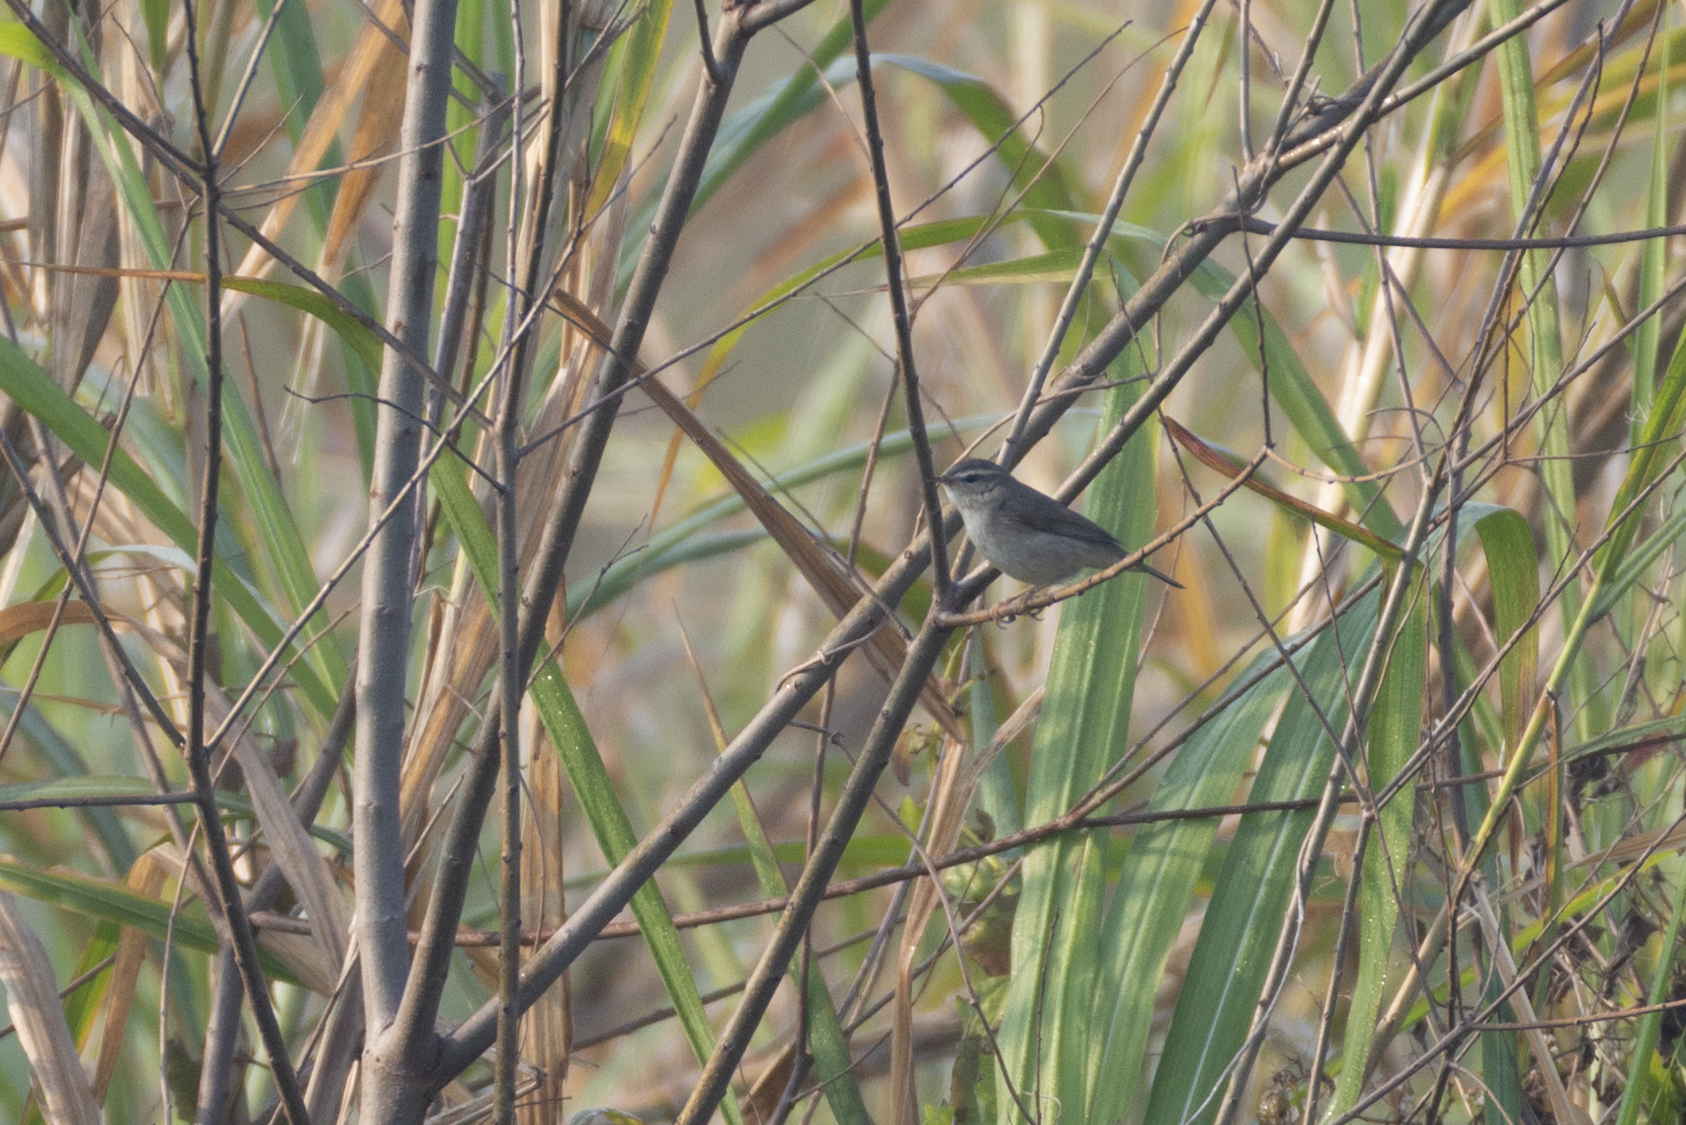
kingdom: Animalia
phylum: Chordata
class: Aves
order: Passeriformes
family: Phylloscopidae
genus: Phylloscopus
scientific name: Phylloscopus fuscatus
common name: Dusky warbler
